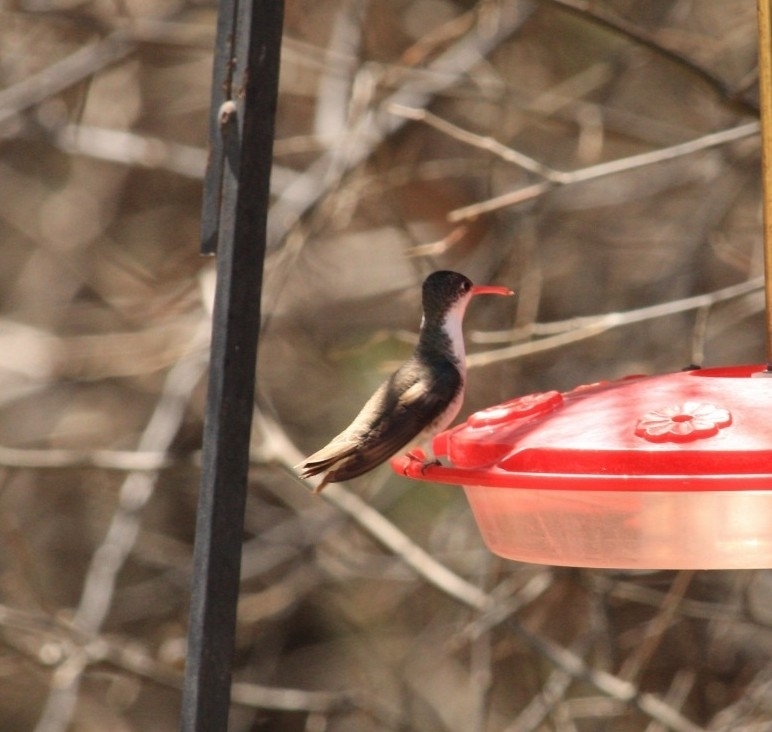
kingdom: Animalia
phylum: Chordata
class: Aves
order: Apodiformes
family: Trochilidae
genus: Leucolia
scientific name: Leucolia violiceps
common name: Violet-crowned hummingbird
